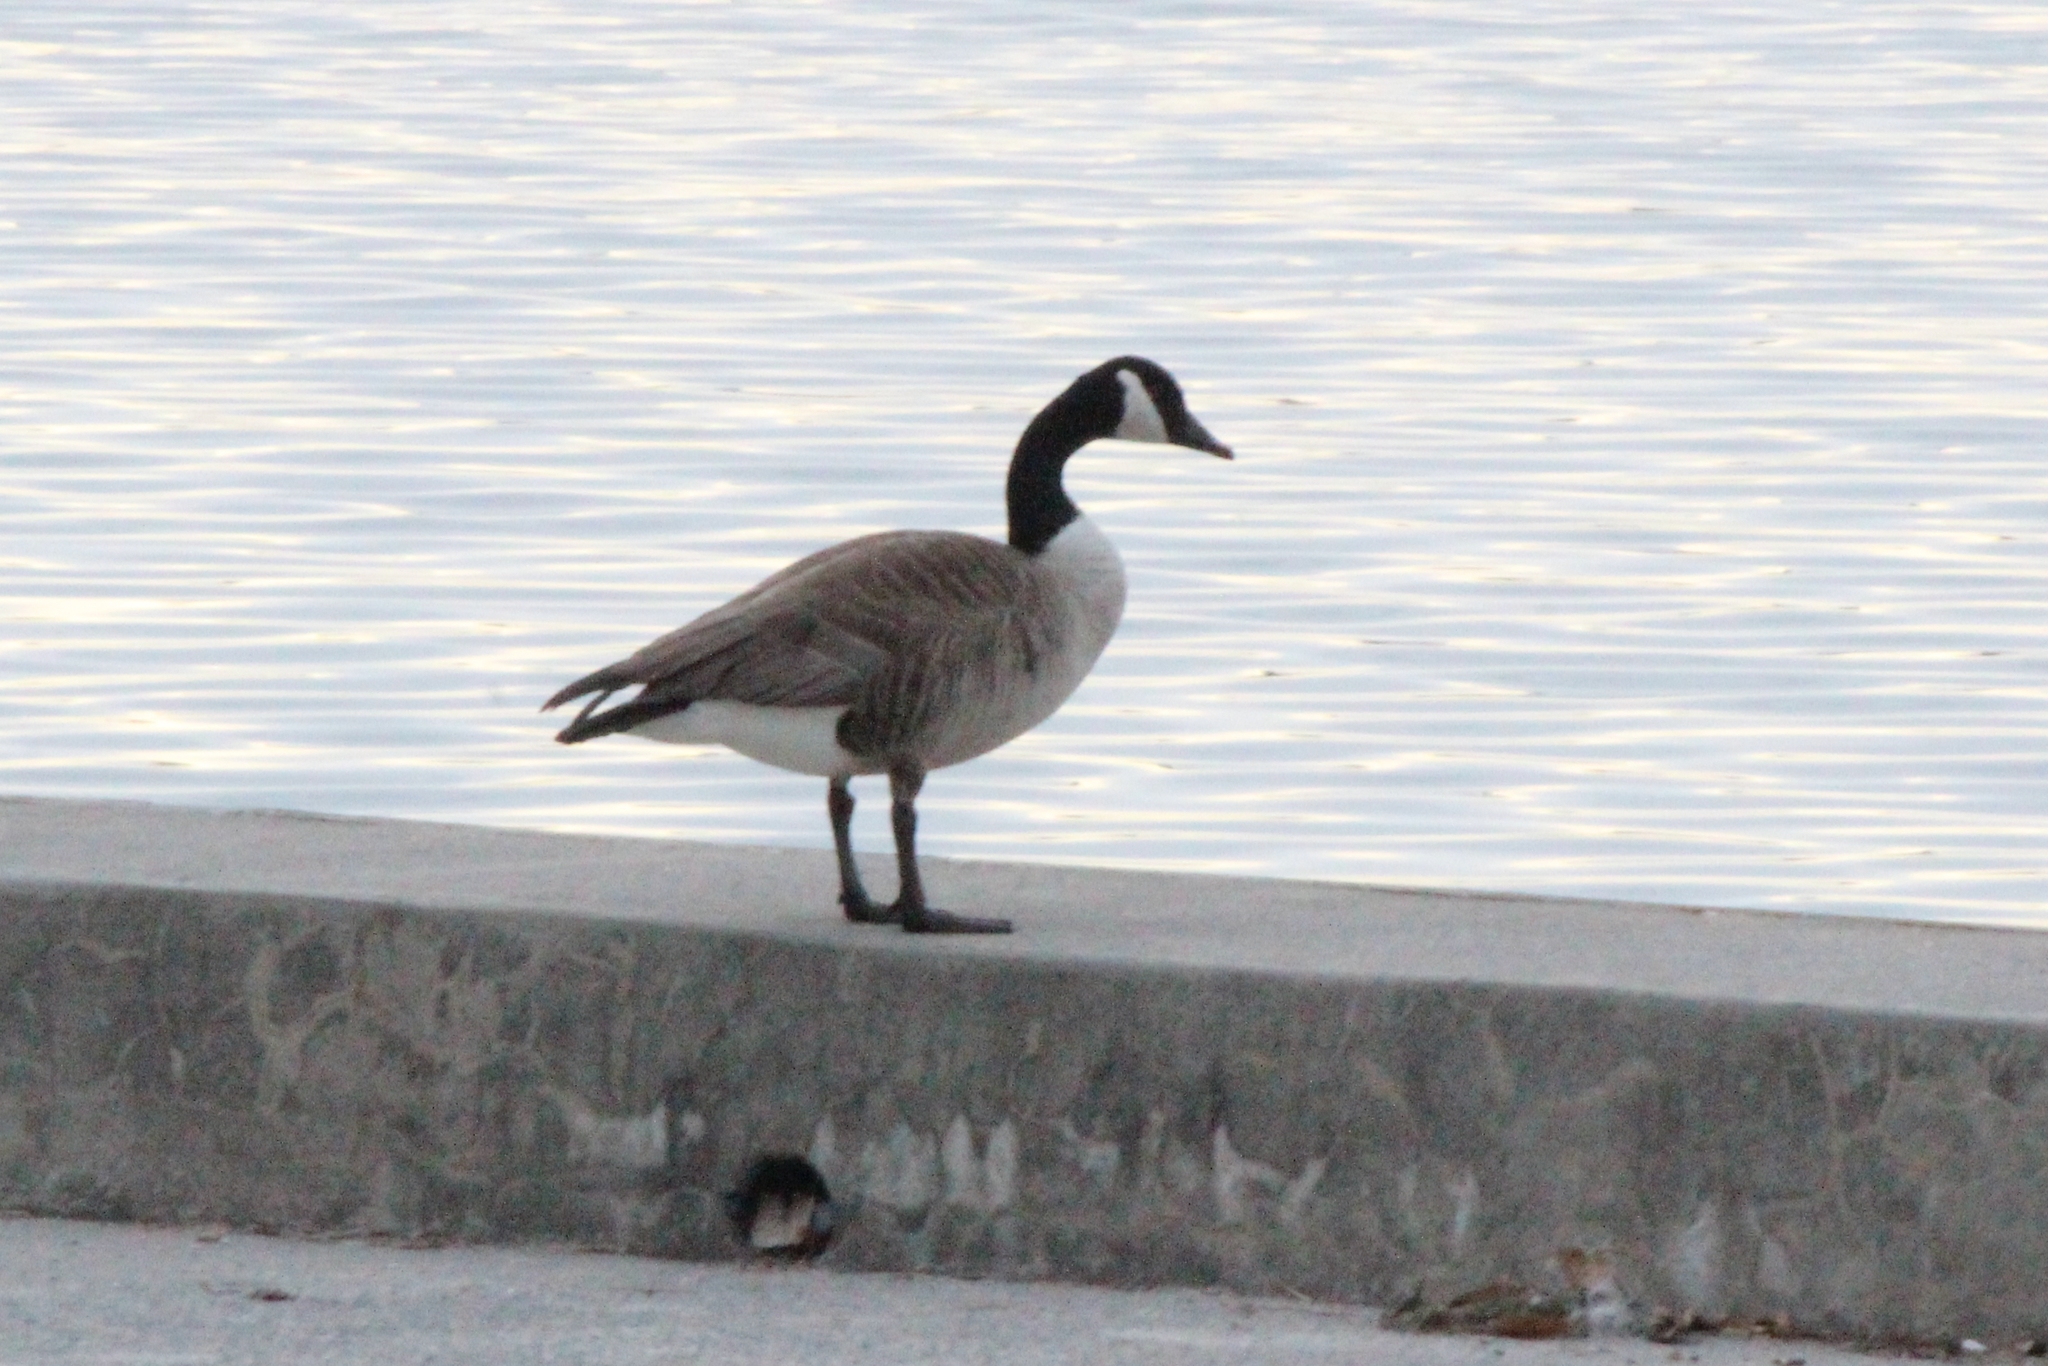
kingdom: Animalia
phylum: Chordata
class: Aves
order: Anseriformes
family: Anatidae
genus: Branta
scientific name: Branta canadensis
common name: Canada goose
